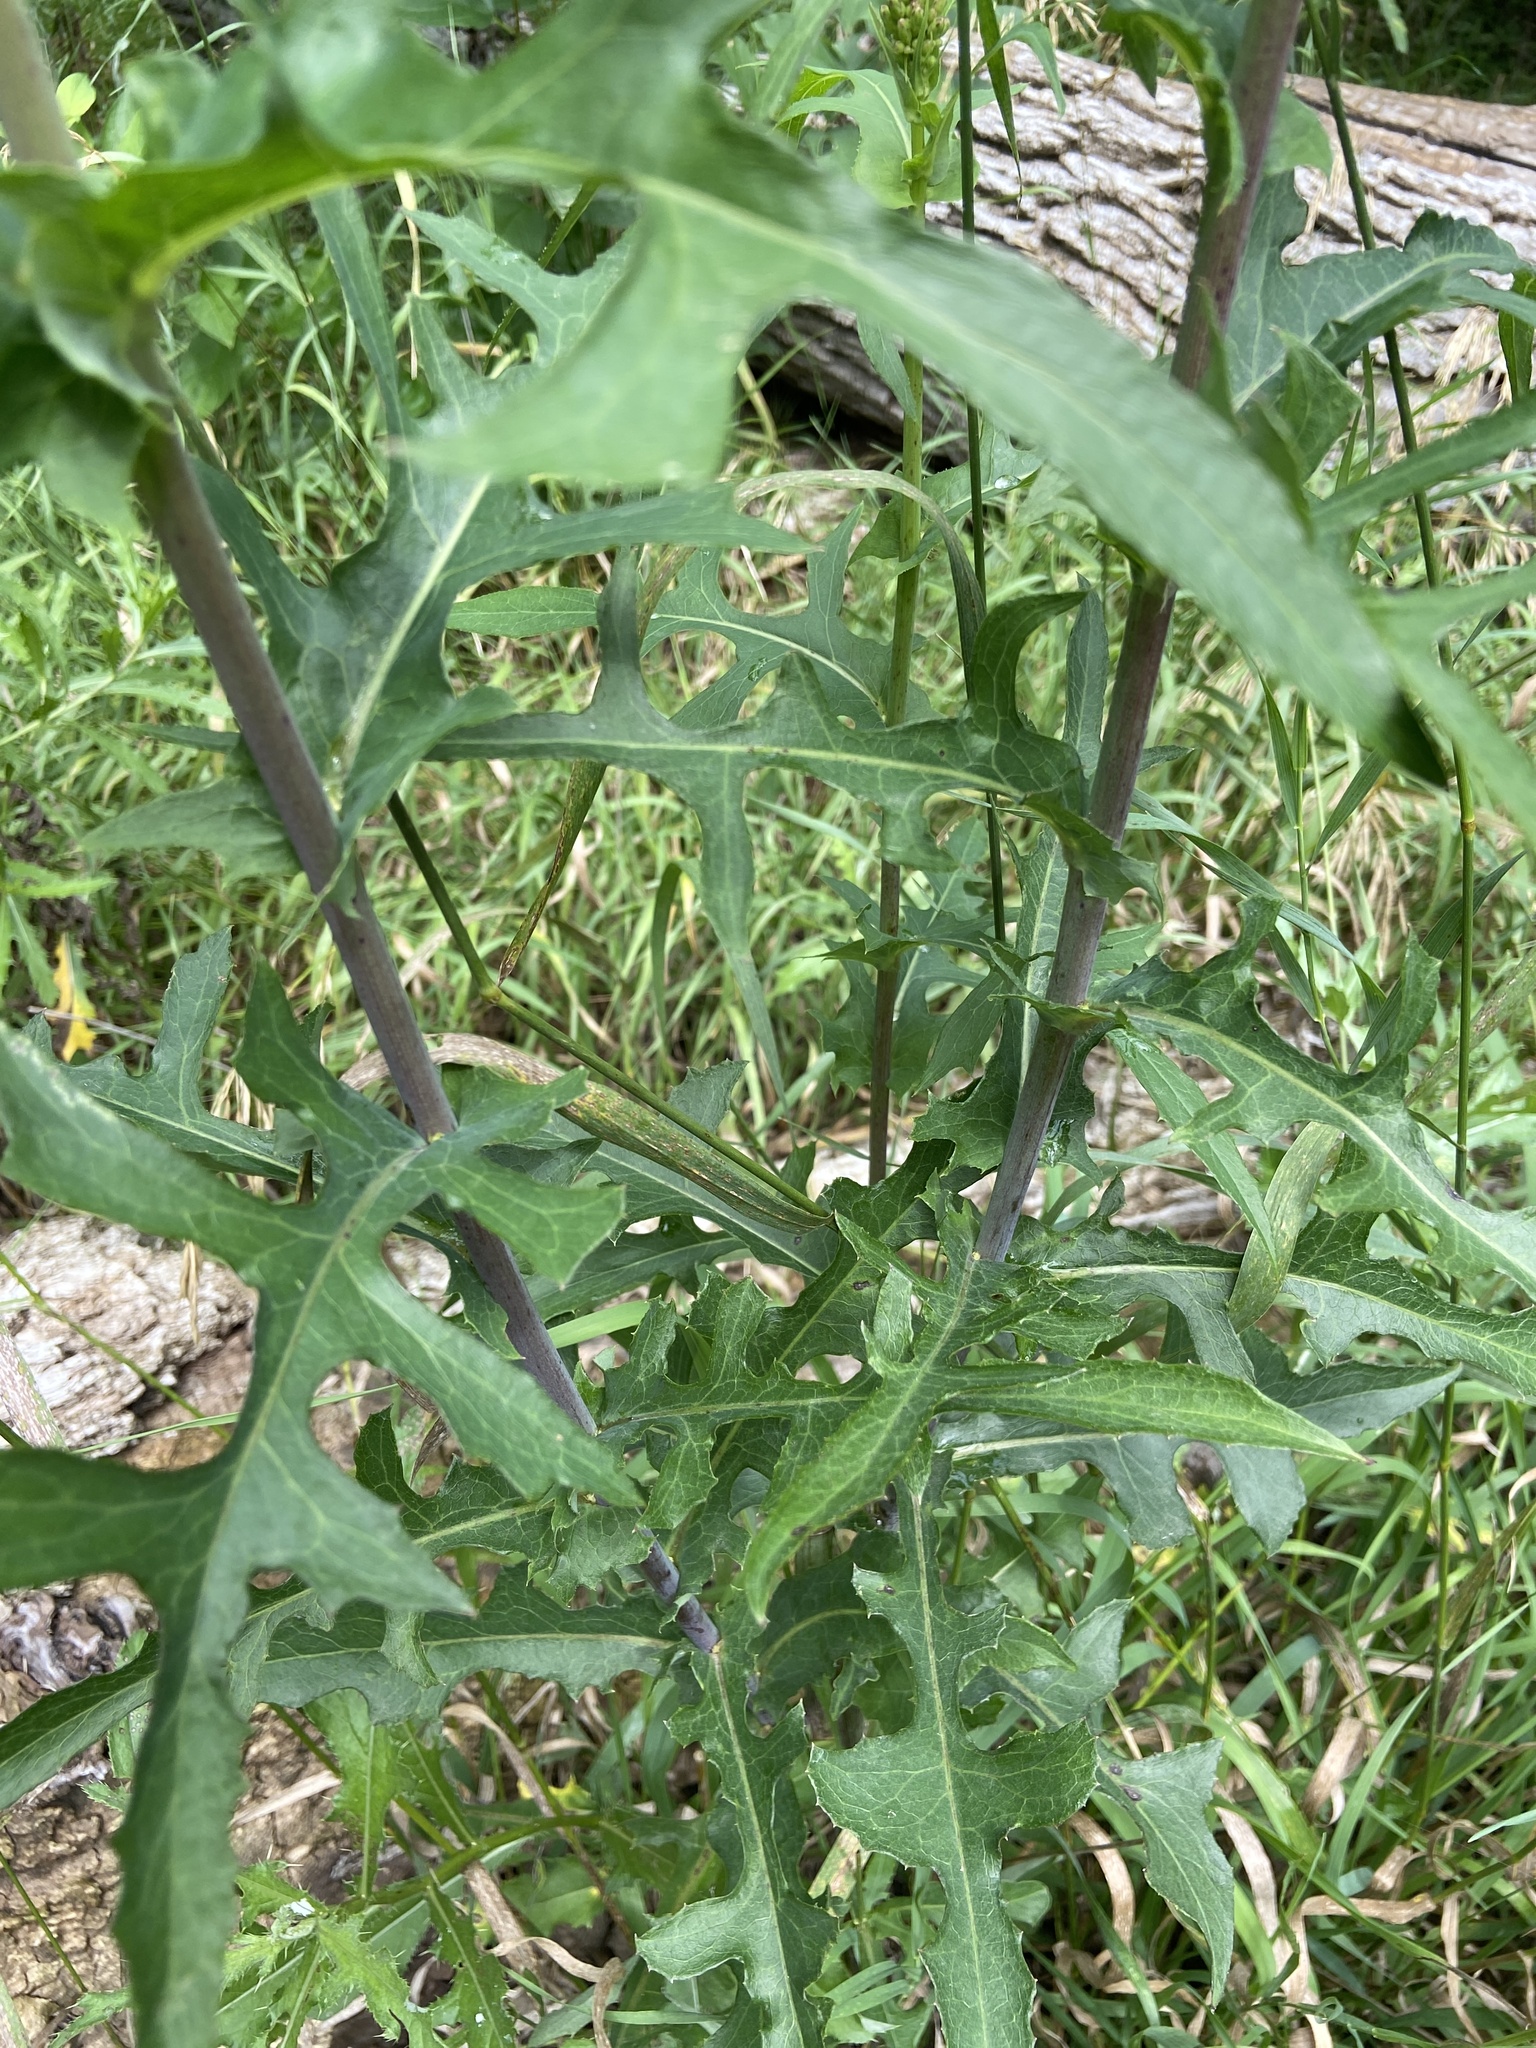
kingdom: Plantae
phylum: Tracheophyta
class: Magnoliopsida
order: Asterales
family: Asteraceae
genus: Lactuca
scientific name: Lactuca canadensis
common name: Canada lettuce
